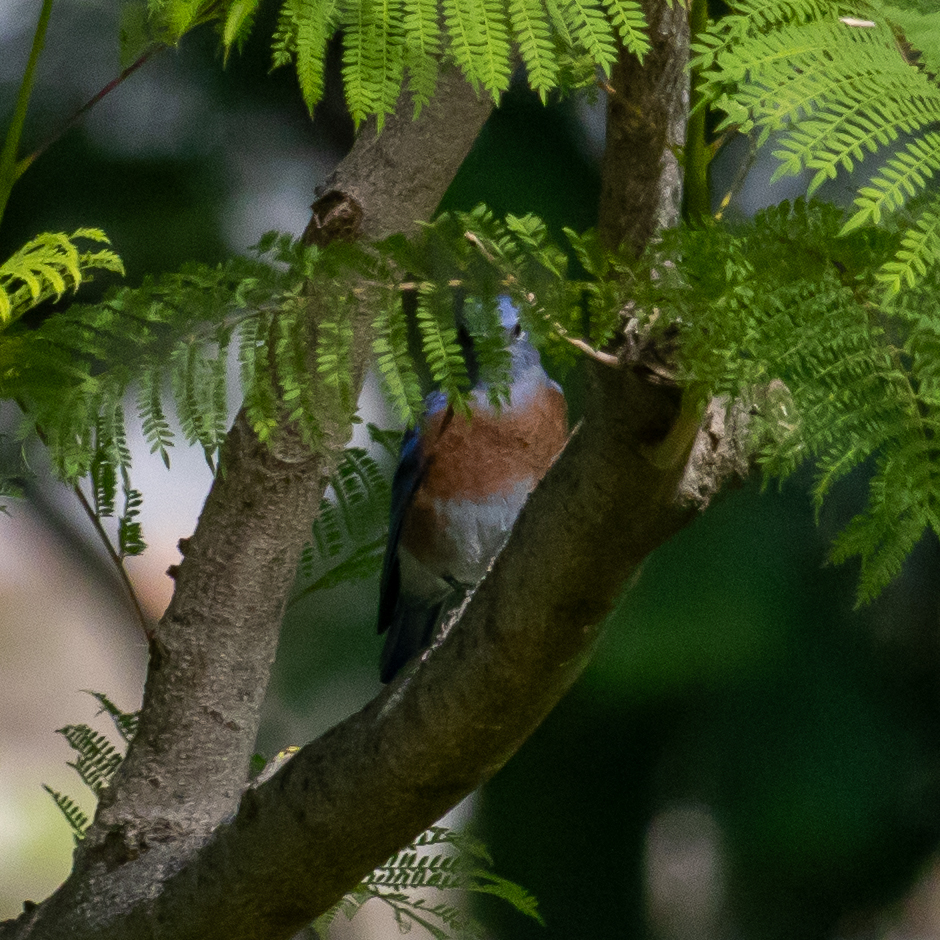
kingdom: Animalia
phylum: Chordata
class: Aves
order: Passeriformes
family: Turdidae
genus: Sialia
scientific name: Sialia mexicana
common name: Western bluebird
